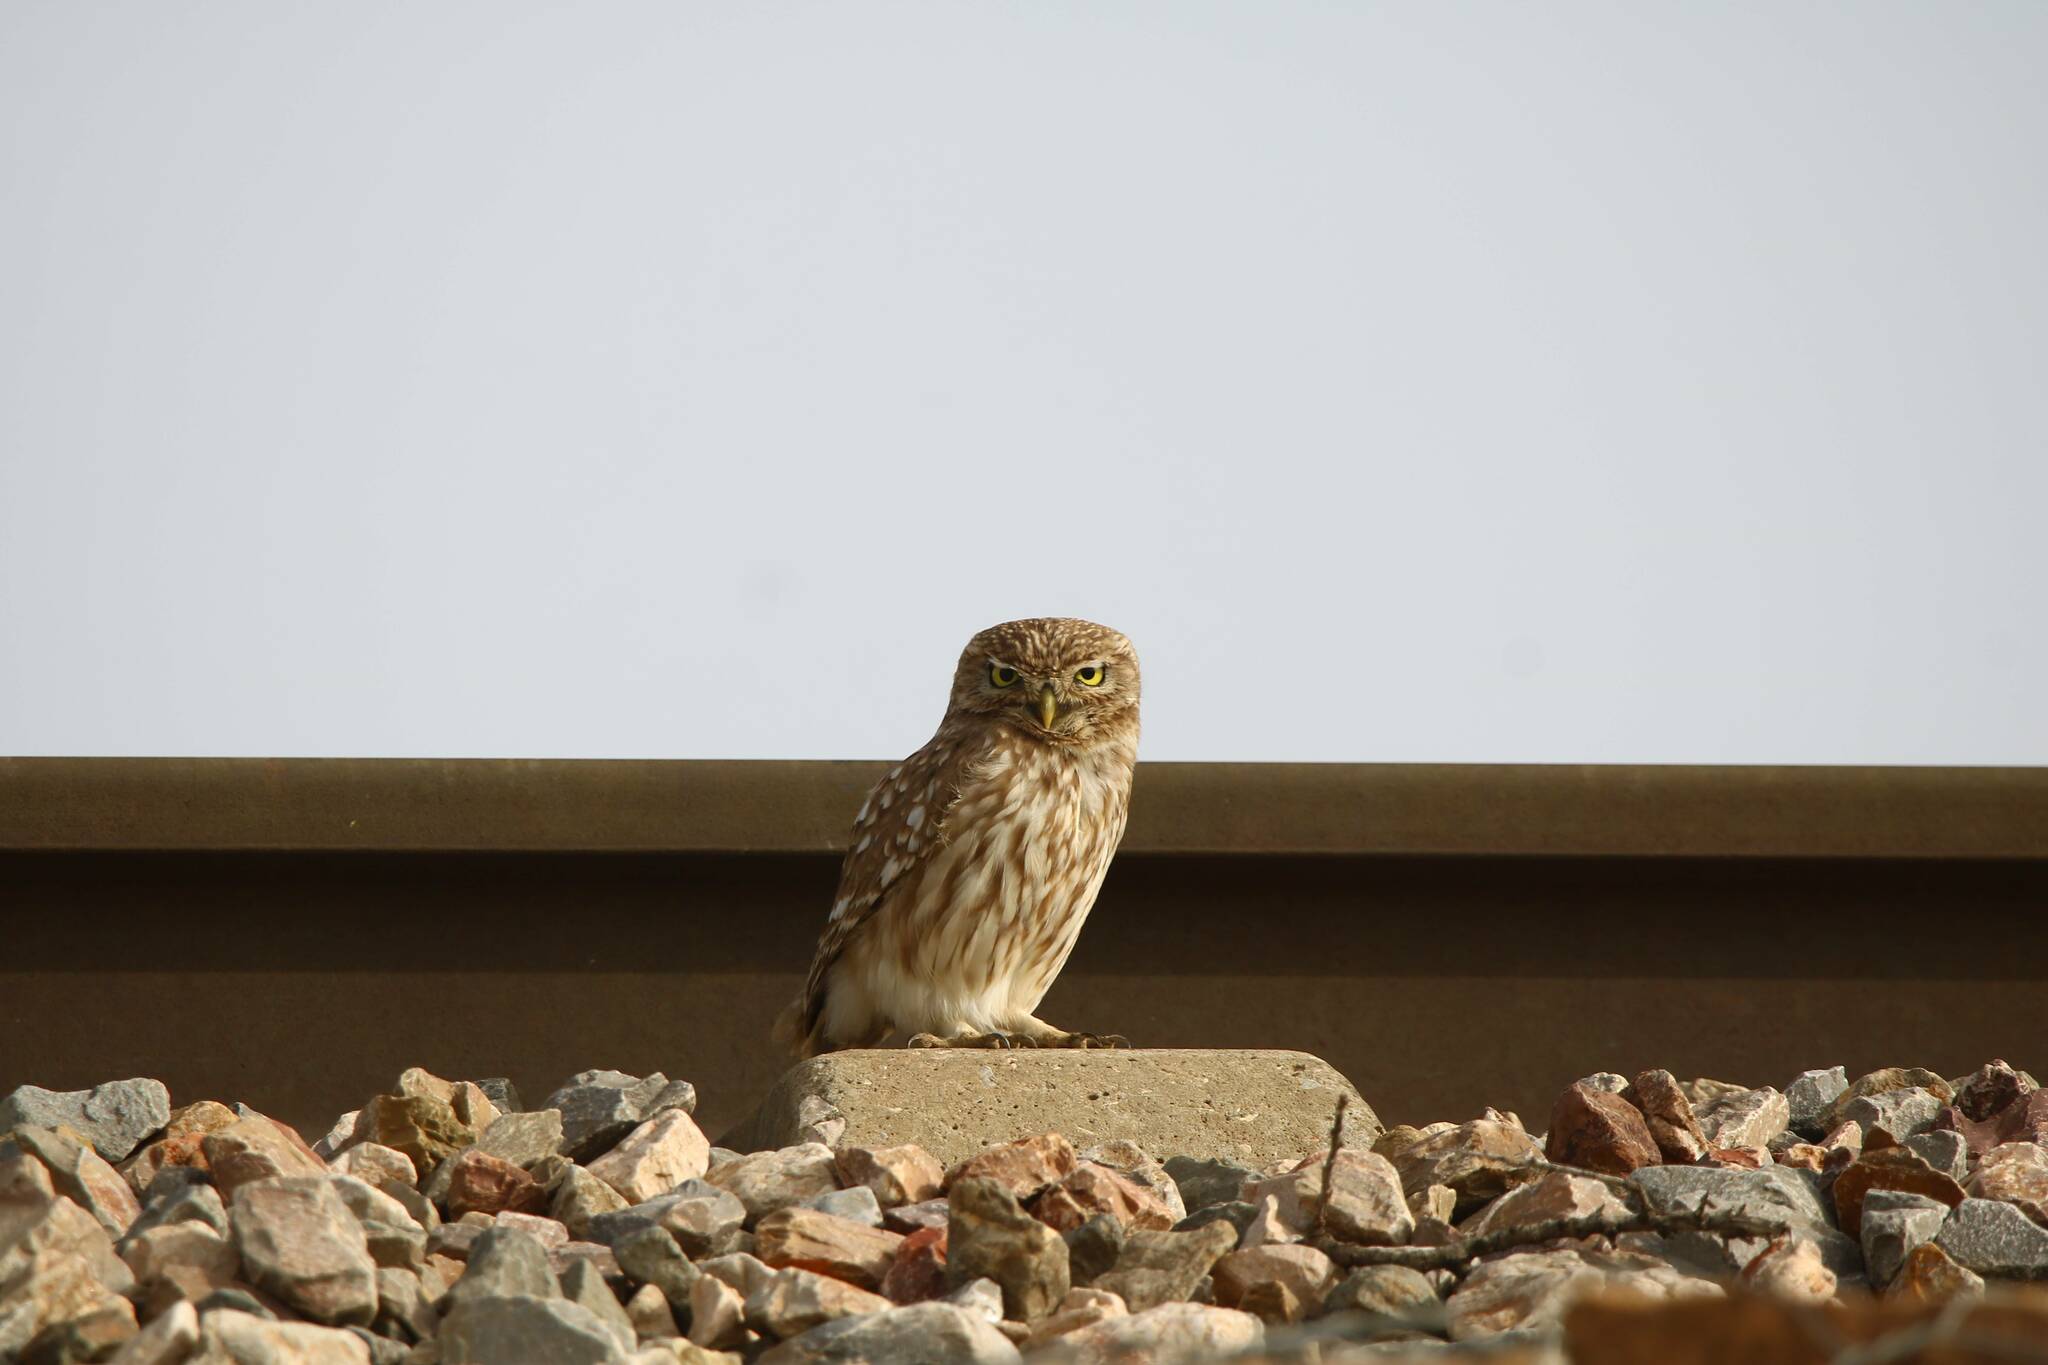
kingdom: Animalia
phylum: Chordata
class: Aves
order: Strigiformes
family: Strigidae
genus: Athene
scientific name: Athene noctua
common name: Little owl
